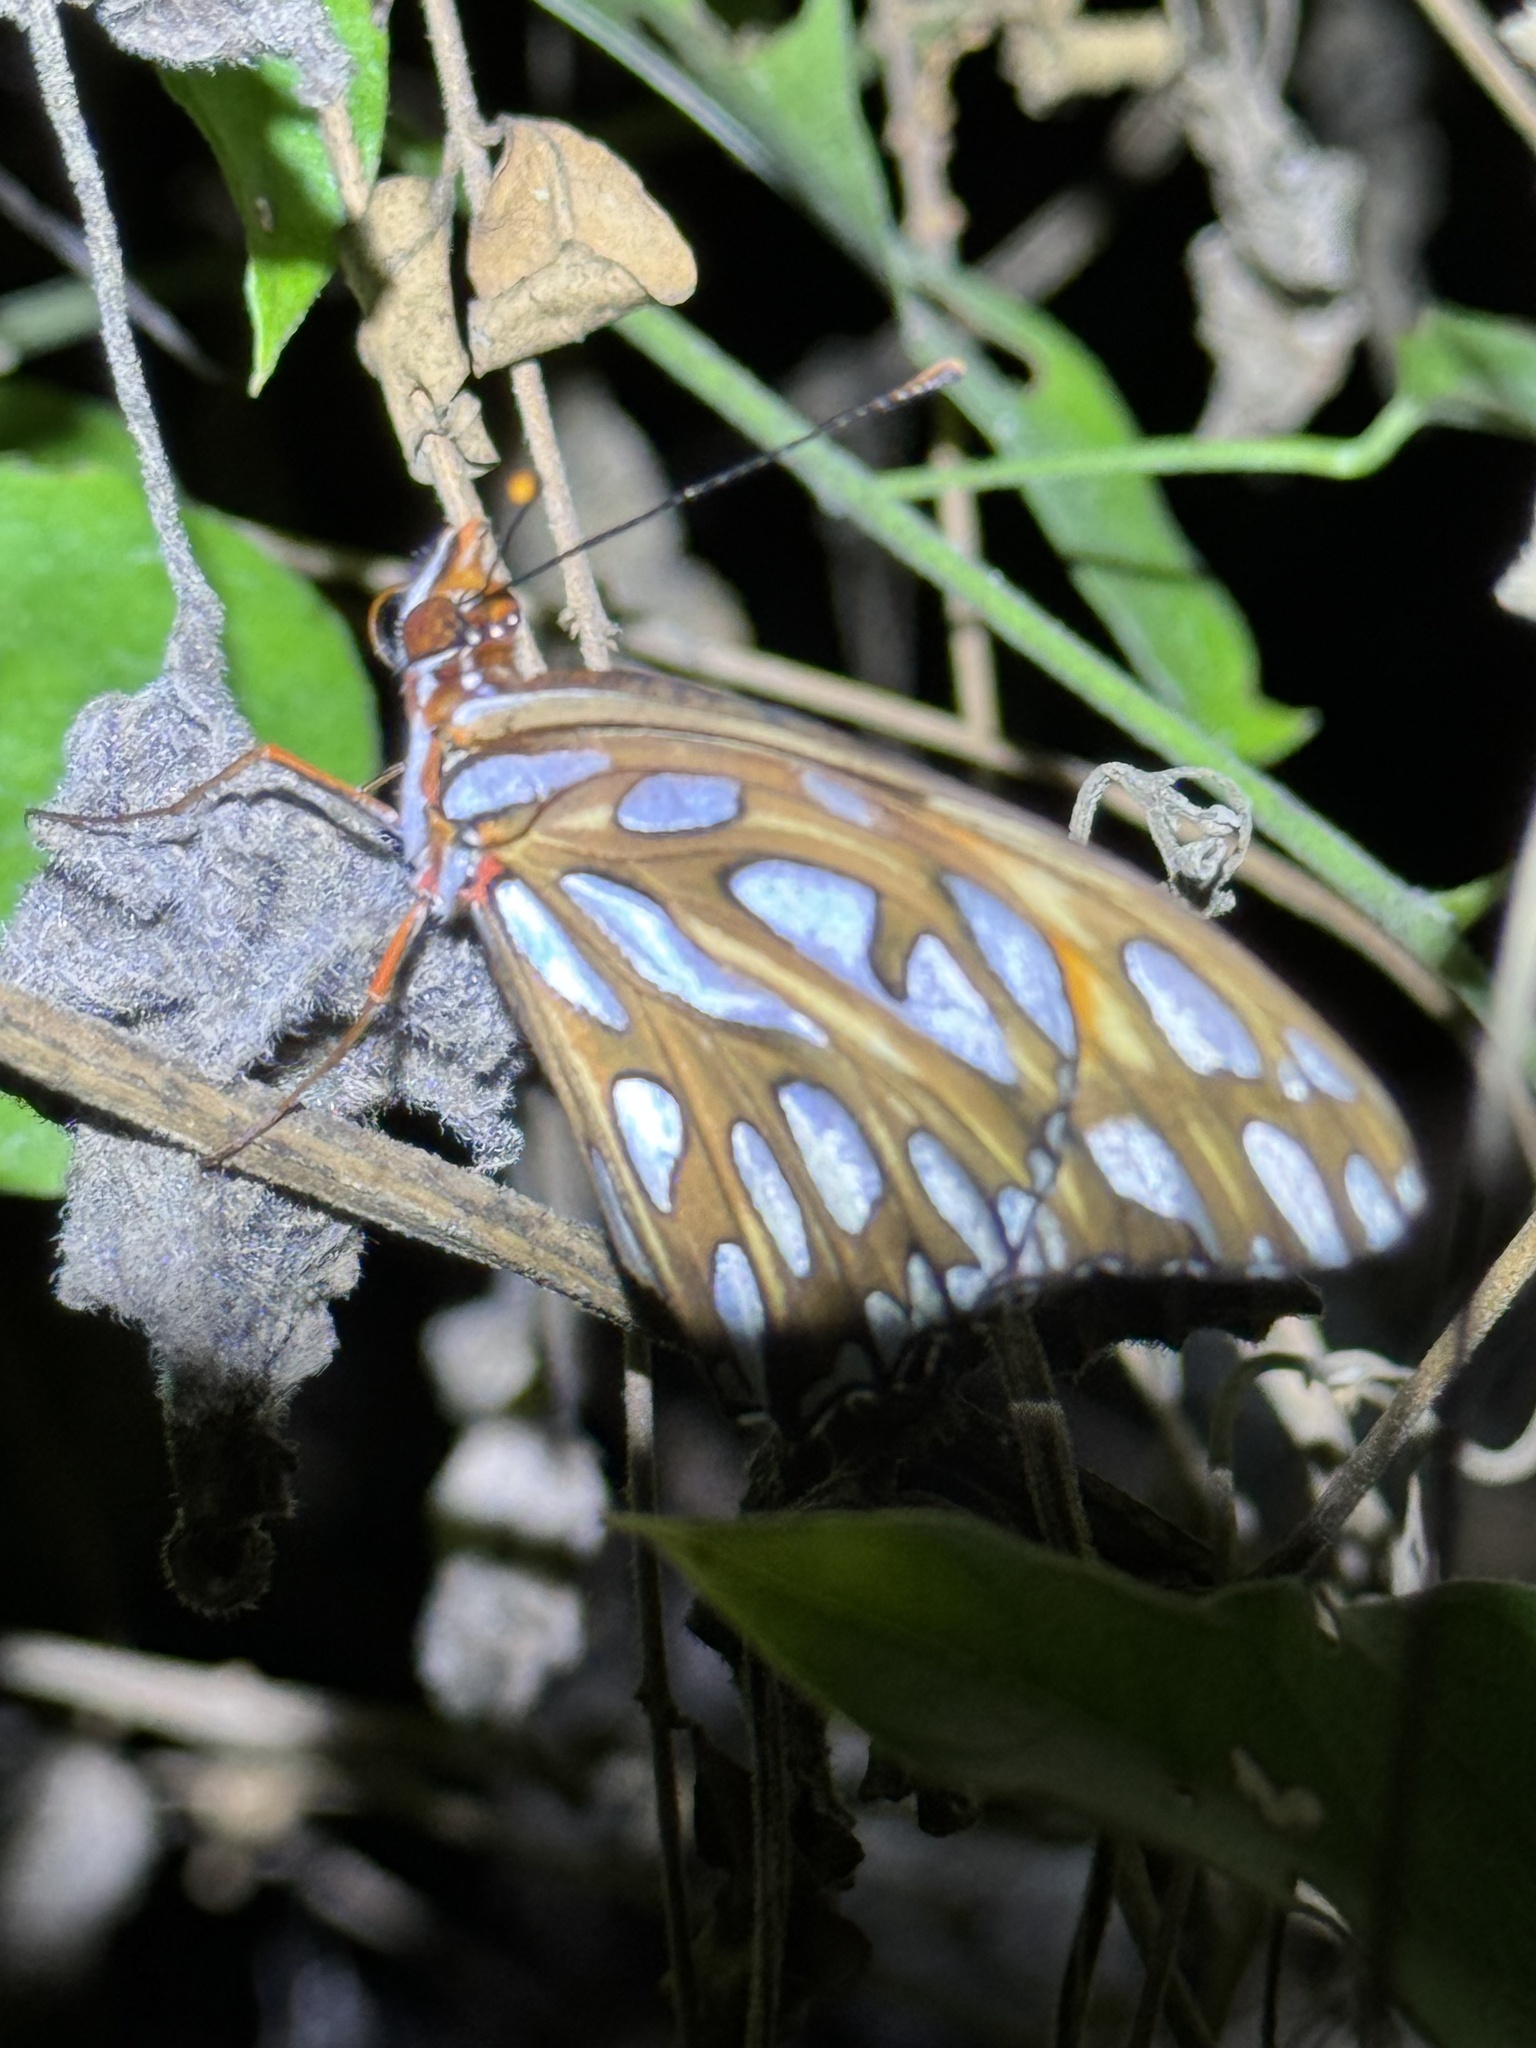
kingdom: Animalia
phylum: Arthropoda
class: Insecta
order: Lepidoptera
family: Nymphalidae
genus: Dione
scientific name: Dione vanillae
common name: Gulf fritillary
